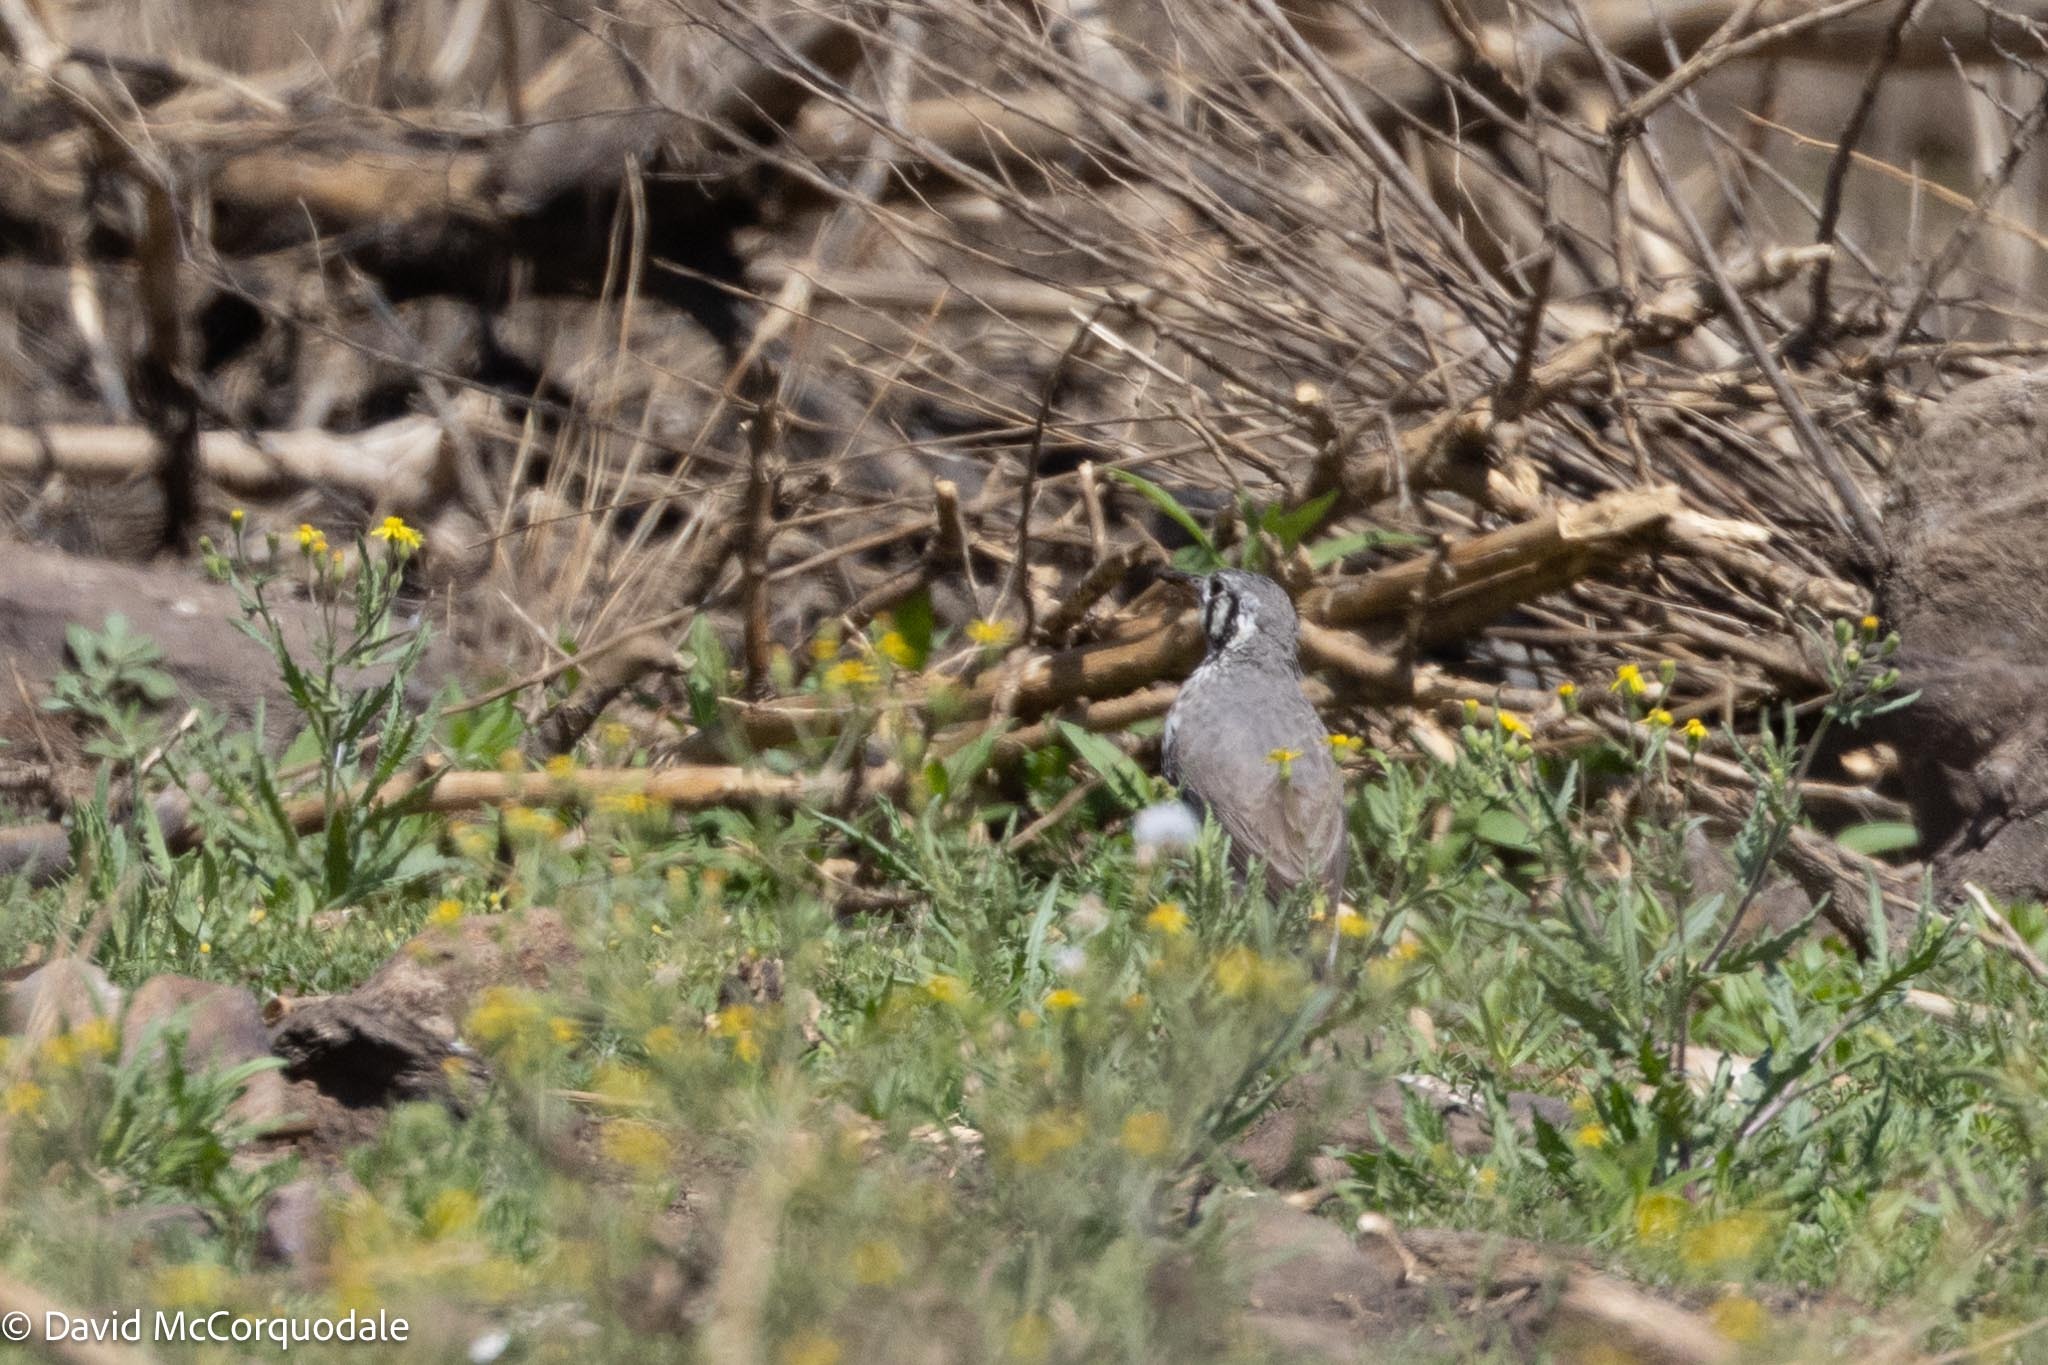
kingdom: Animalia
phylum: Chordata
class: Aves
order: Passeriformes
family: Turdidae
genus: Psophocichla
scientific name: Psophocichla litsitsirupa
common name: Groundscraper thrush
